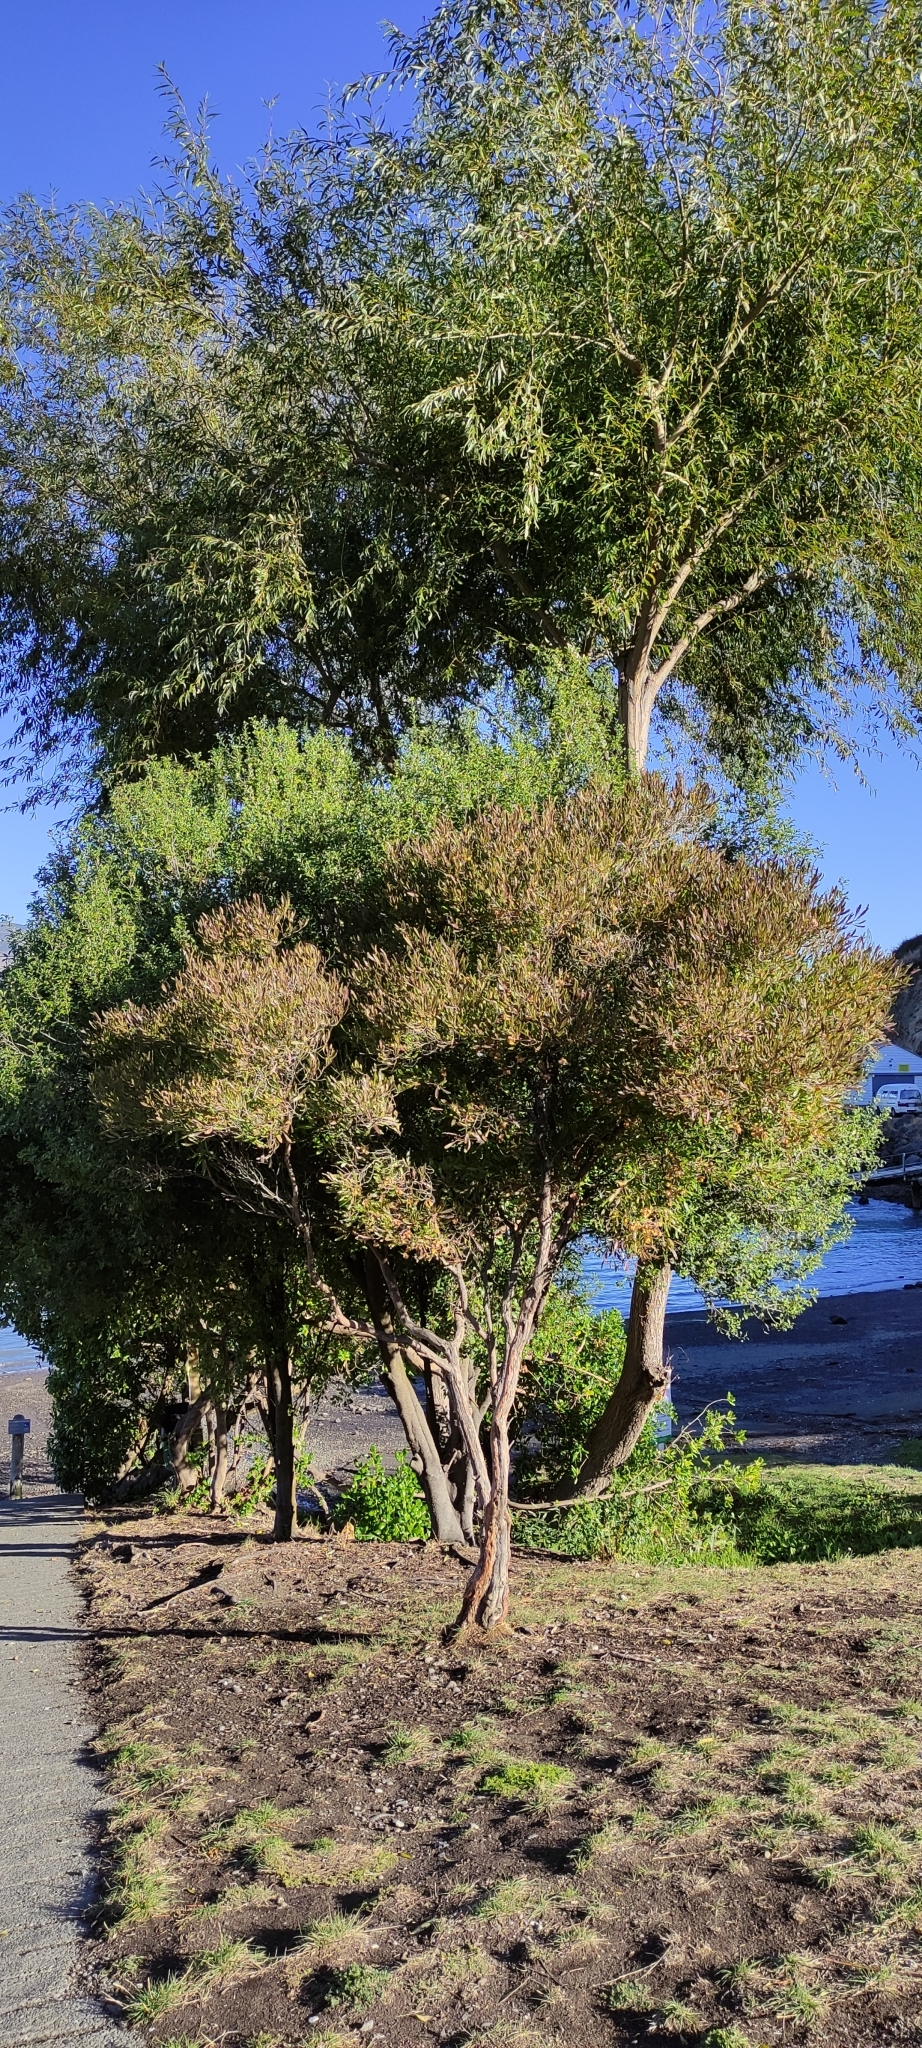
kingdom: Plantae
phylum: Tracheophyta
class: Magnoliopsida
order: Sapindales
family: Sapindaceae
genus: Dodonaea
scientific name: Dodonaea viscosa
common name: Hopbush
